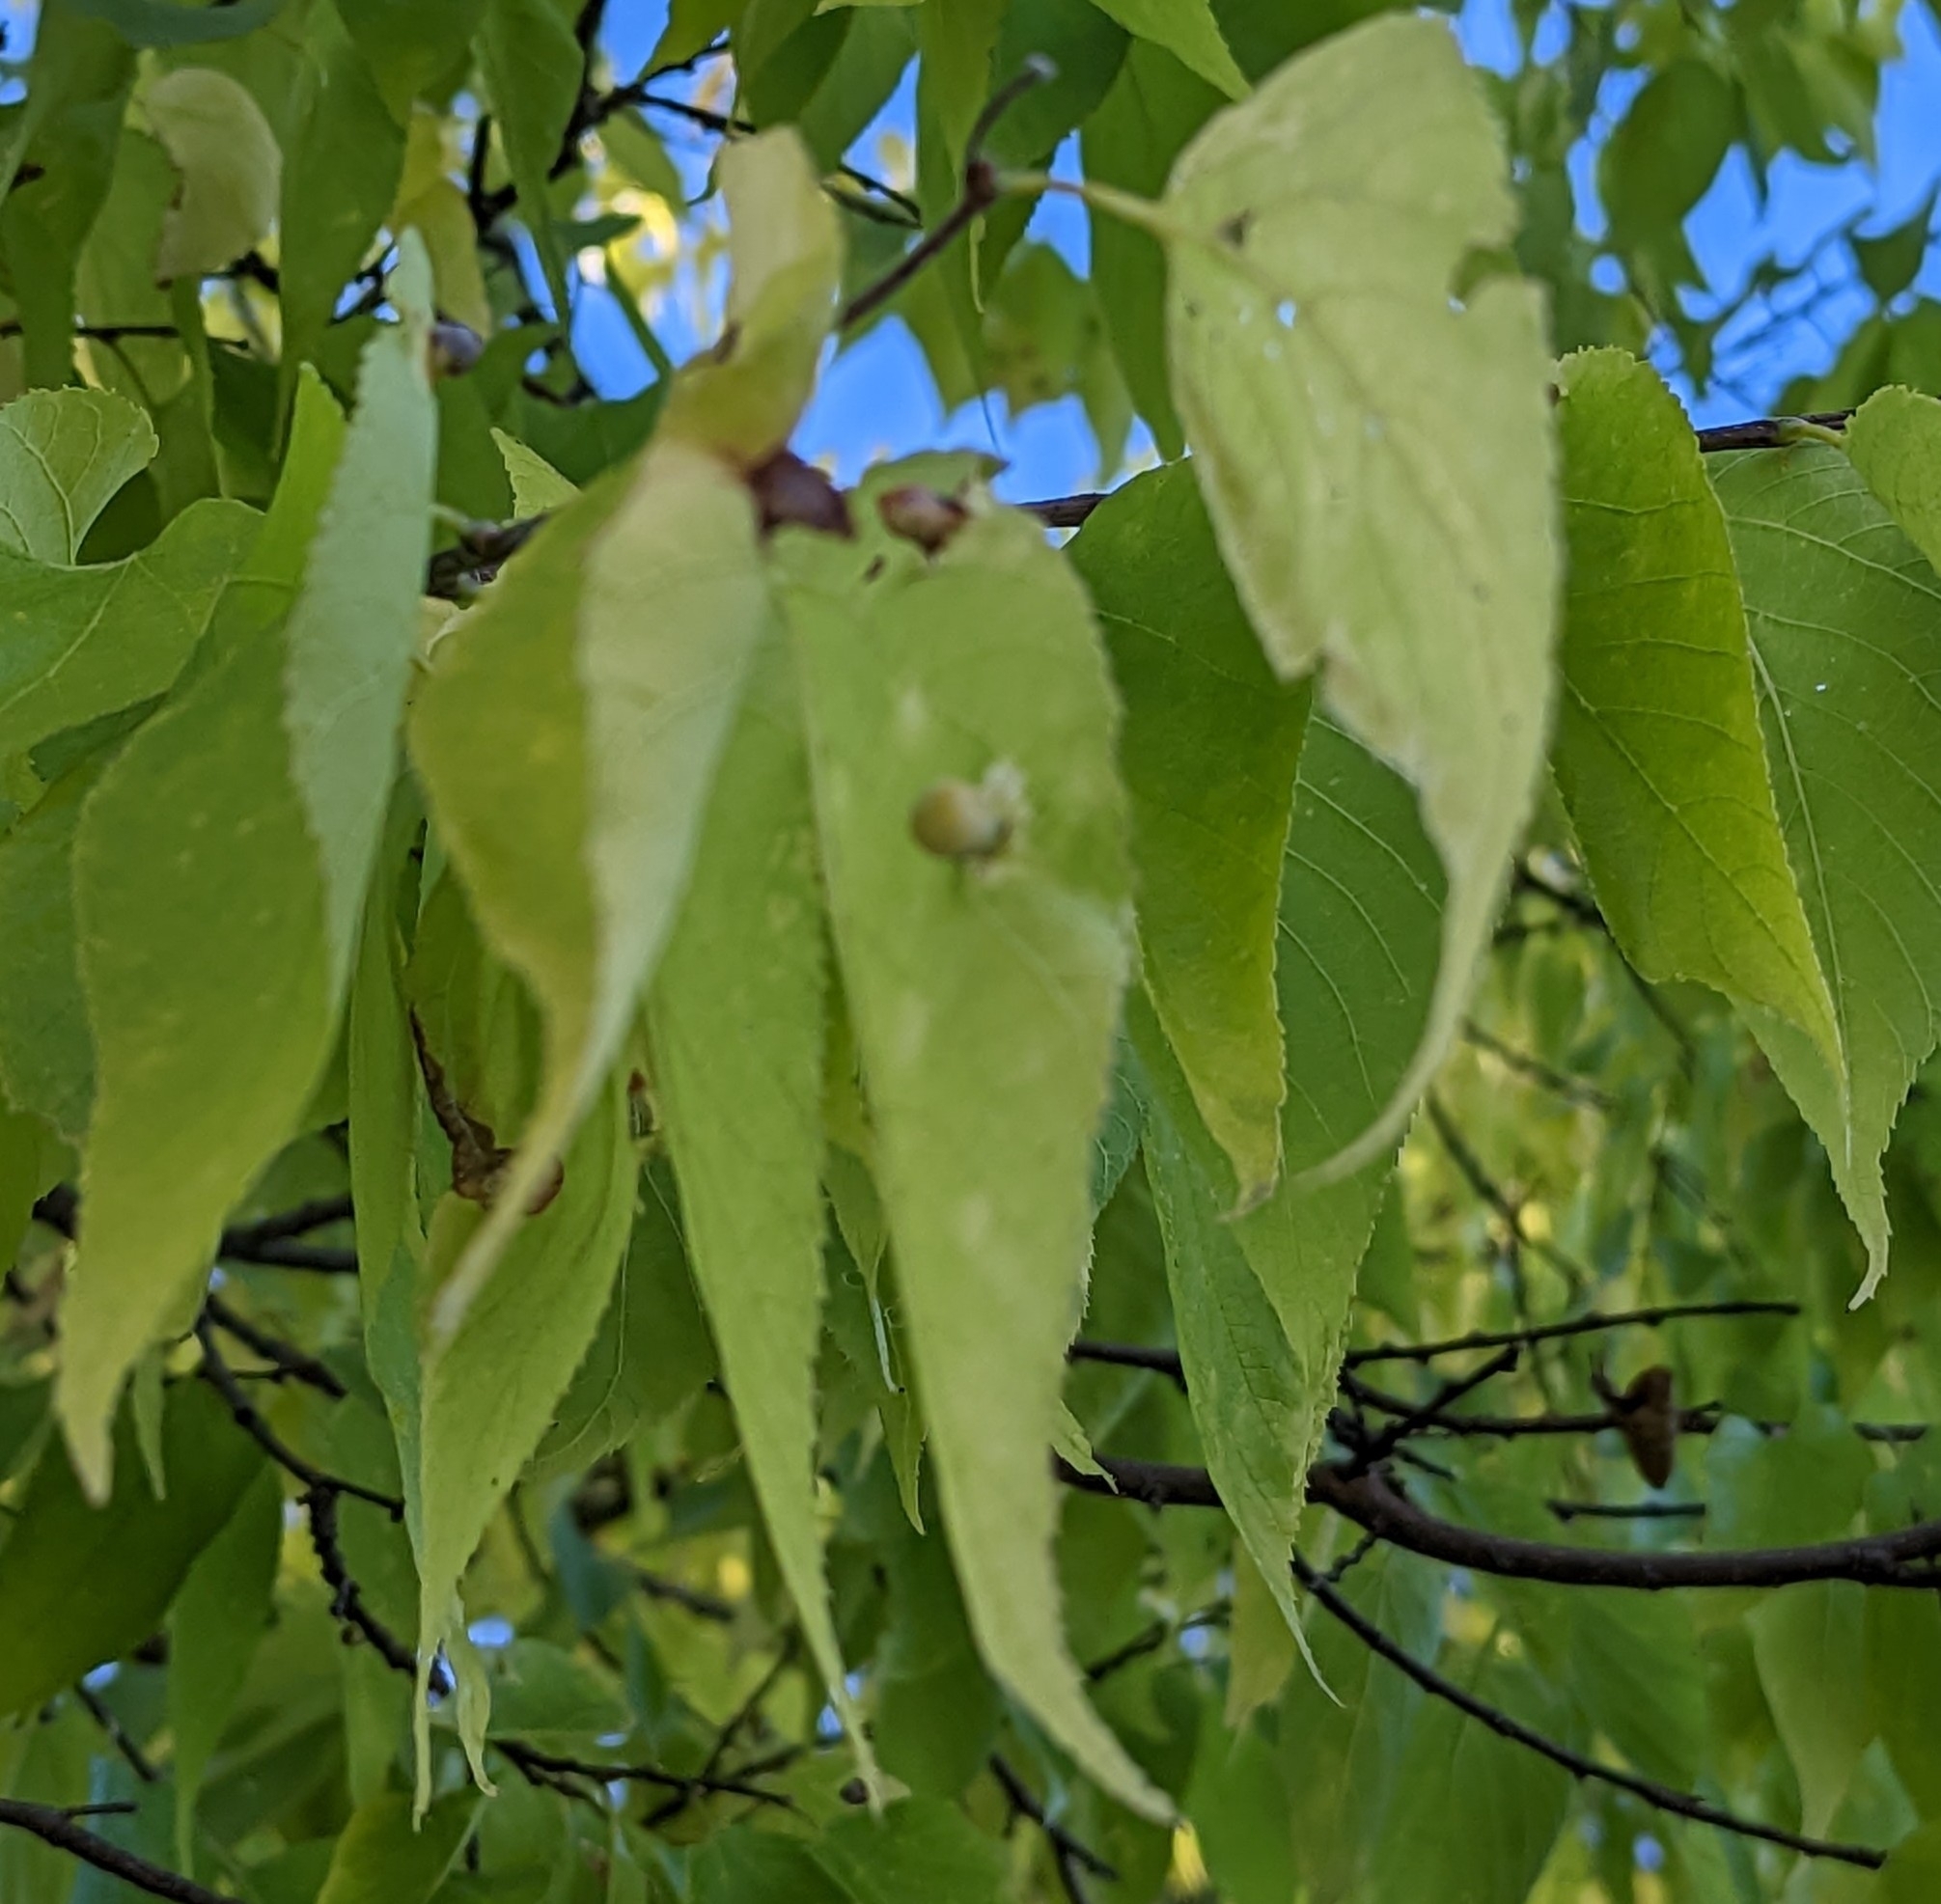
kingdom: Animalia
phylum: Arthropoda
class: Insecta
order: Hemiptera
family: Aphalaridae
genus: Pachypsylla
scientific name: Pachypsylla celtidismamma
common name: Hackberry nipplegall psyllid
